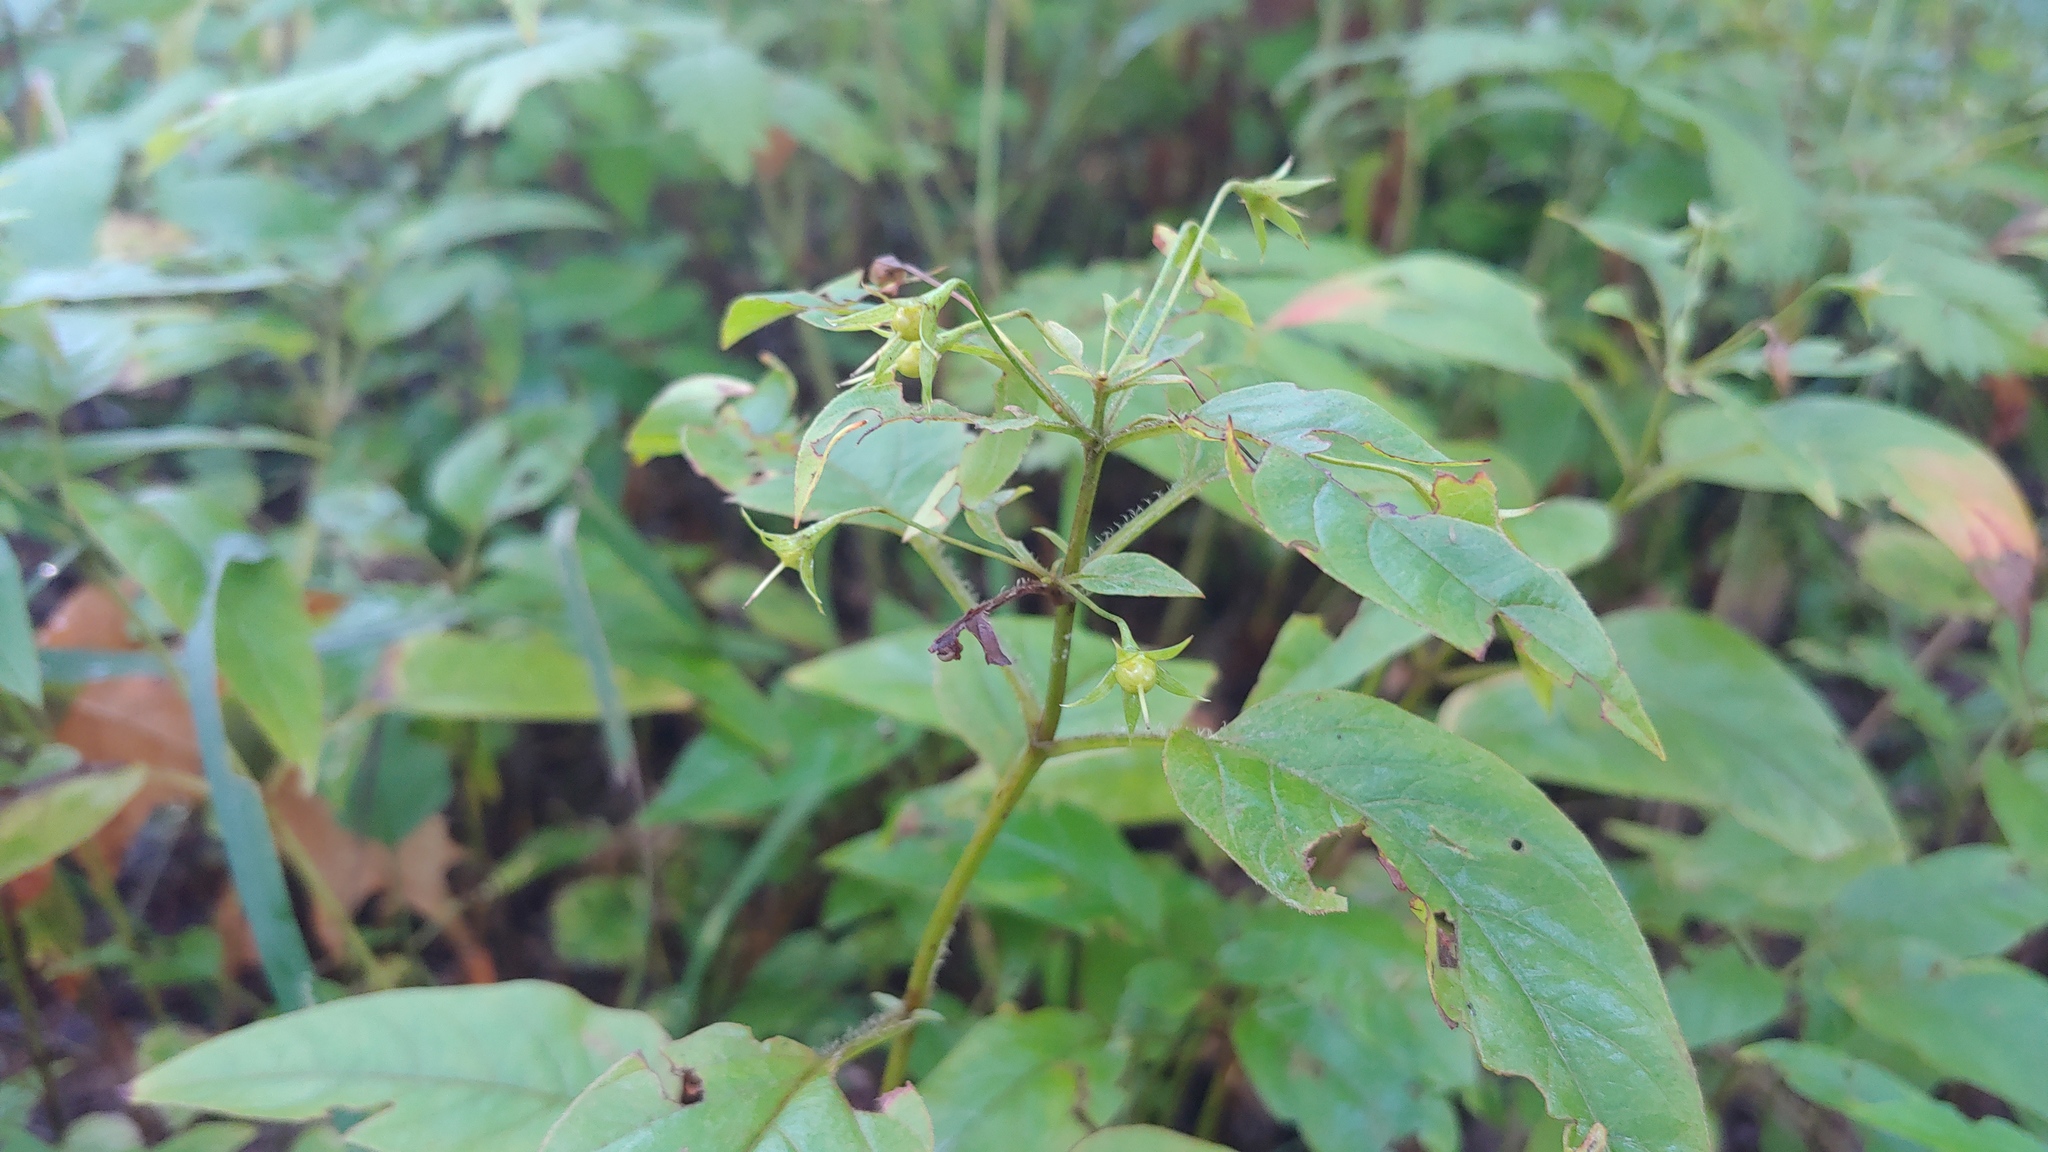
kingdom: Plantae
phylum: Tracheophyta
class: Magnoliopsida
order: Ericales
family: Primulaceae
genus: Lysimachia
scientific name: Lysimachia ciliata
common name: Fringed loosestrife
